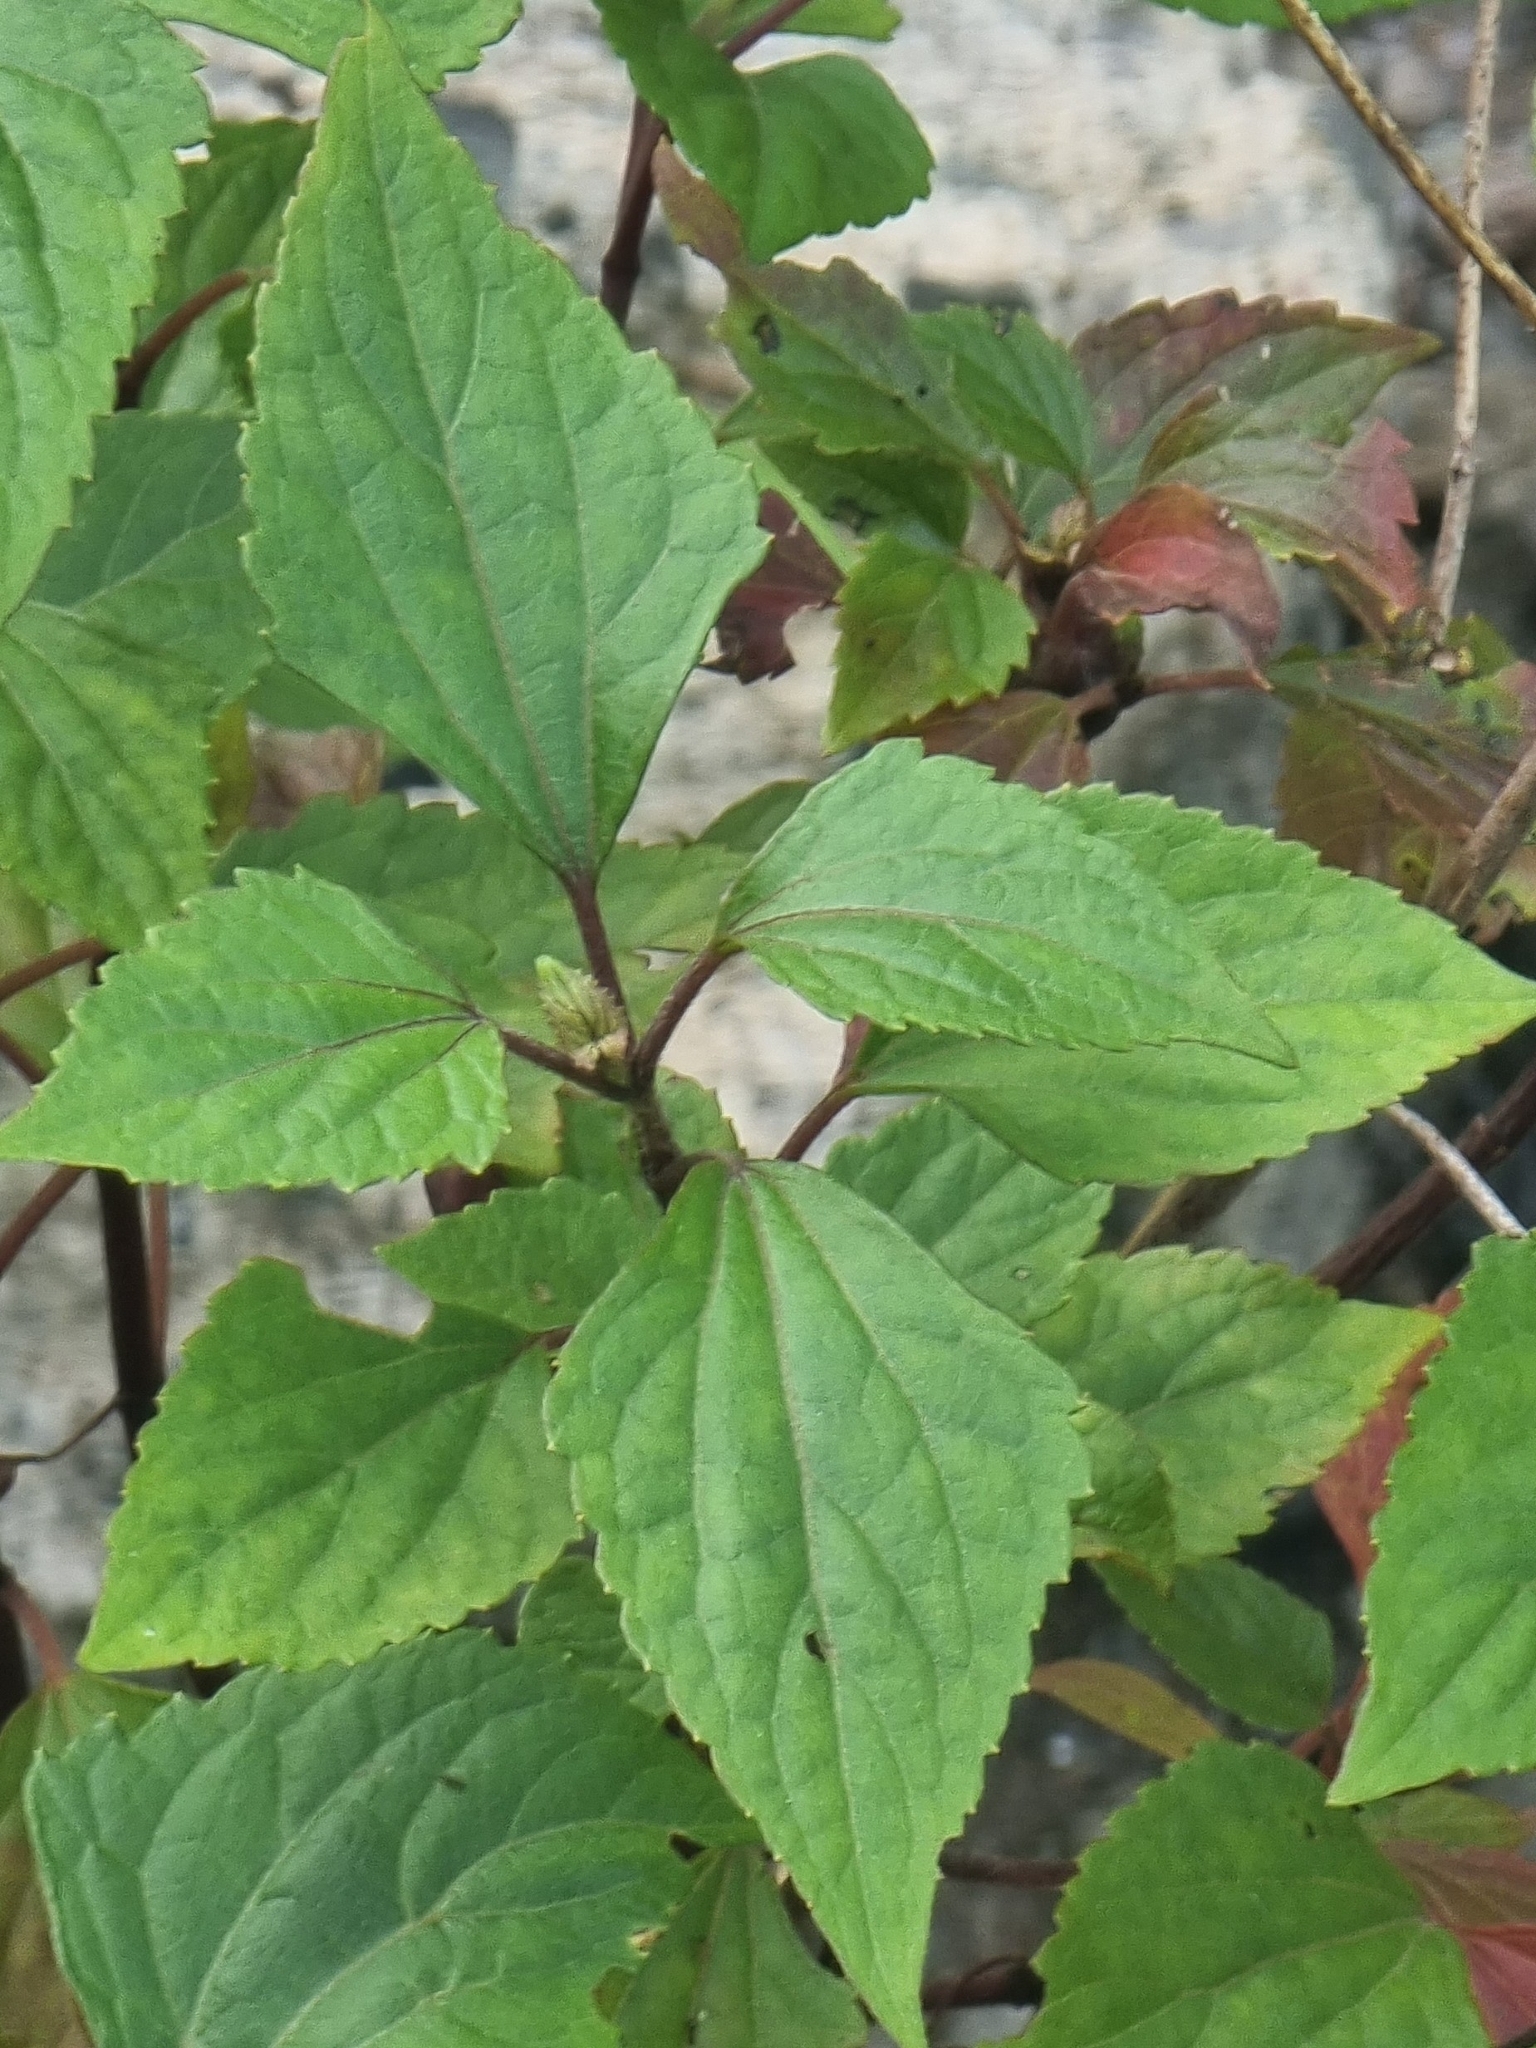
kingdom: Plantae
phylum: Tracheophyta
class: Magnoliopsida
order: Asterales
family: Asteraceae
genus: Ageratina
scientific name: Ageratina adenophora
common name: Sticky snakeroot
